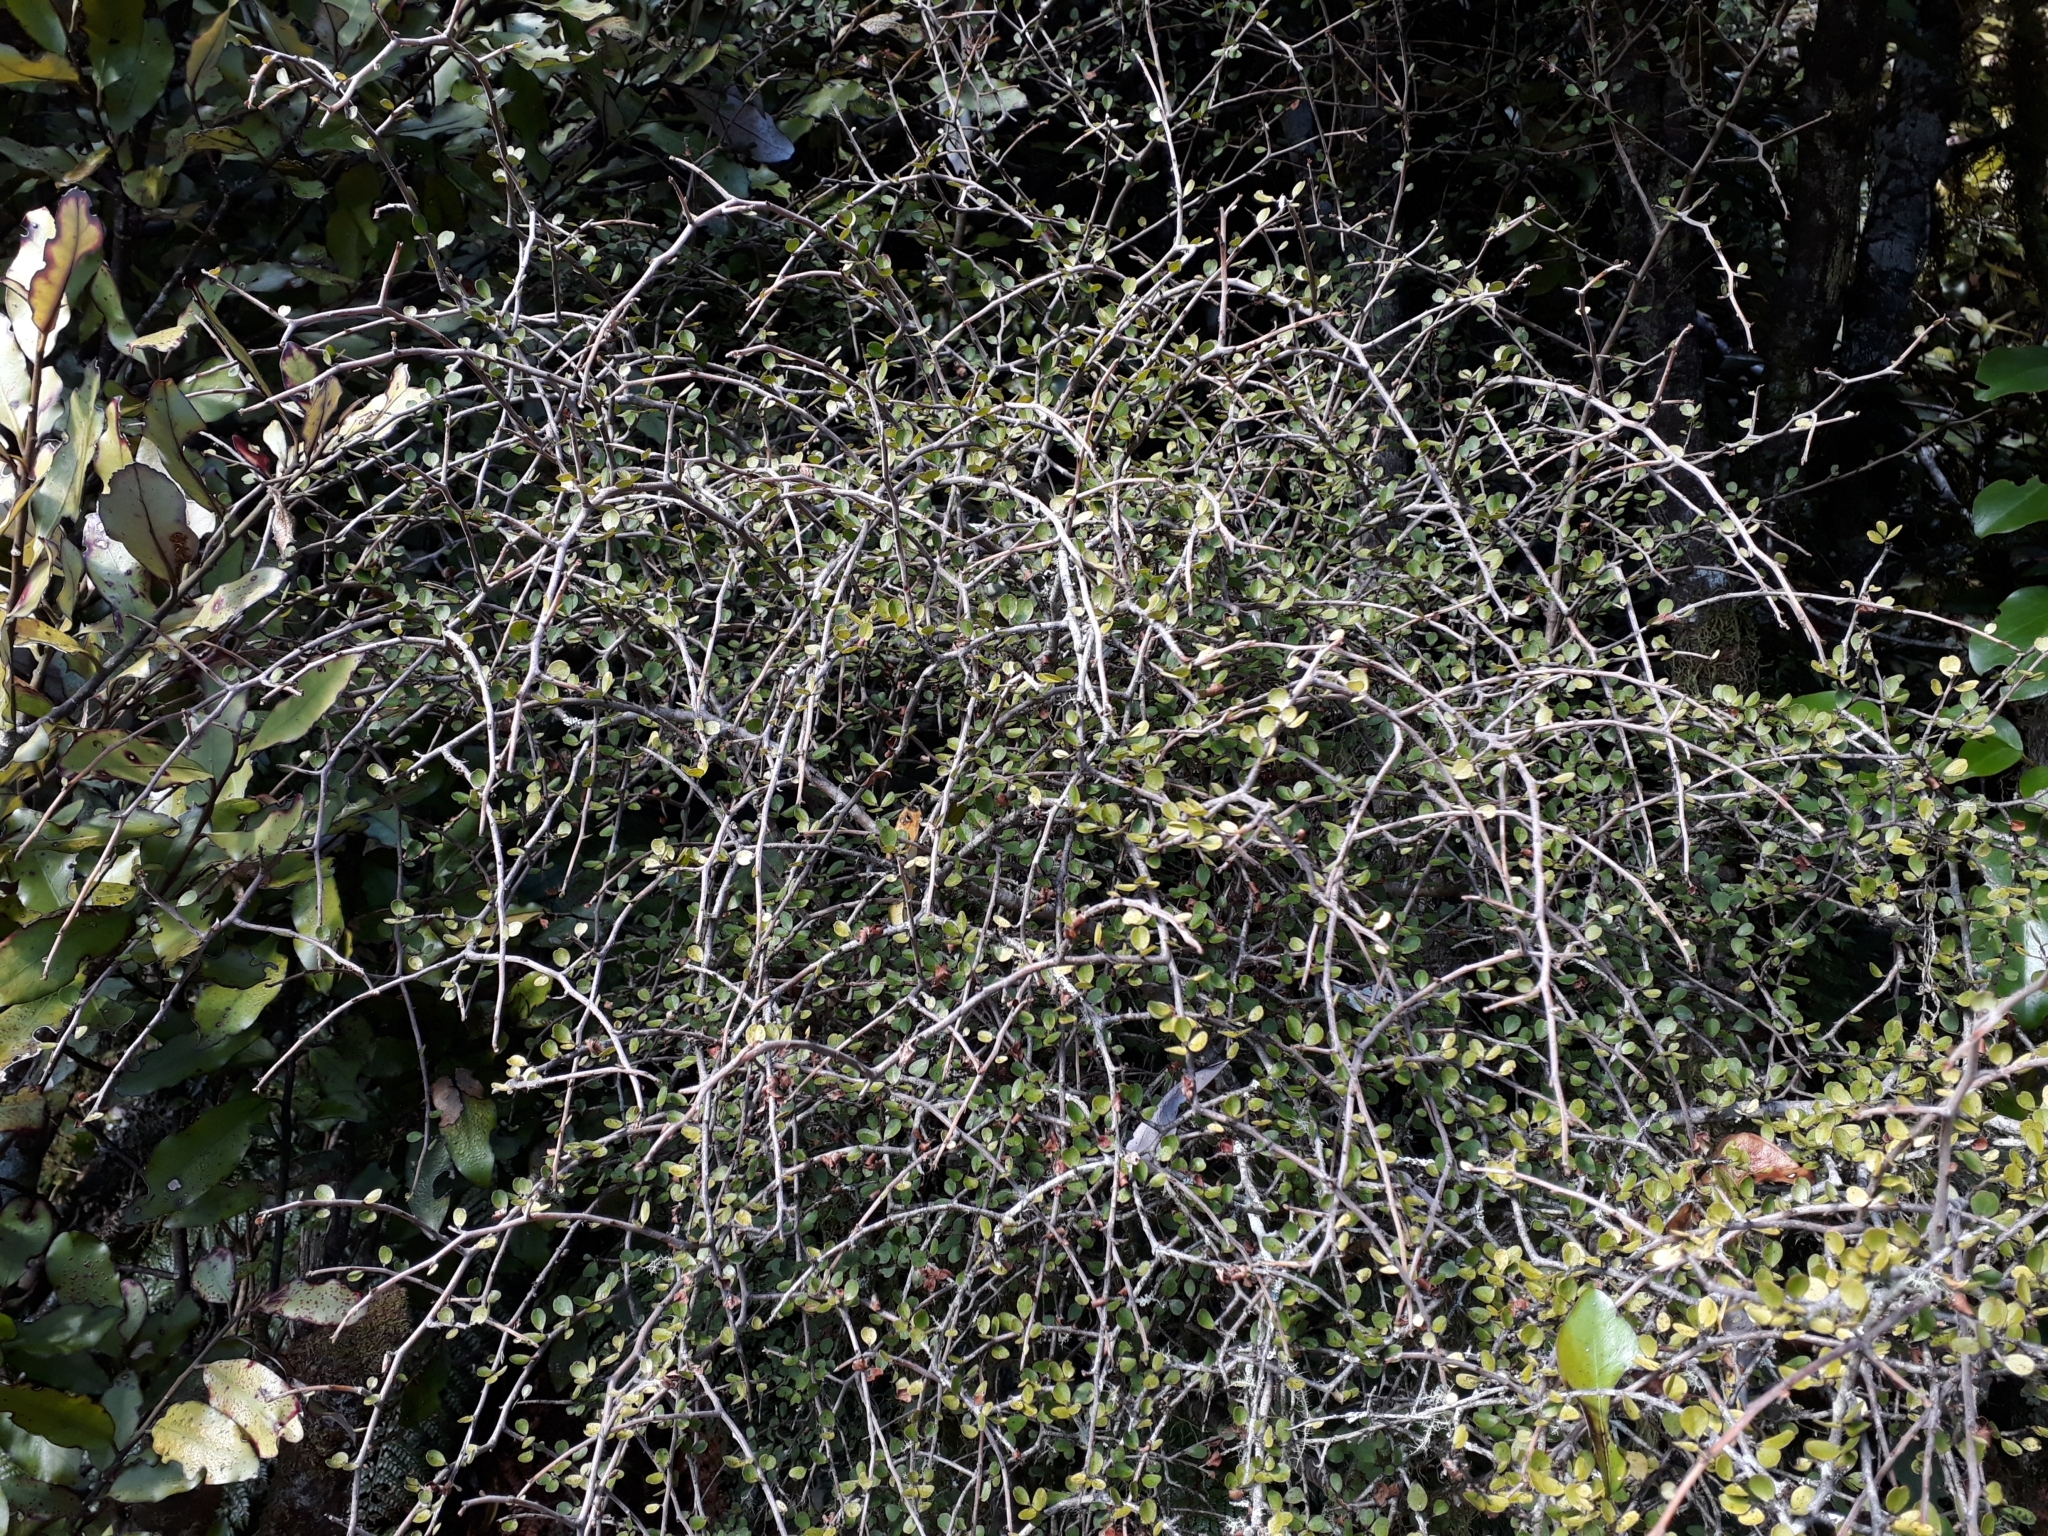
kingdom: Plantae
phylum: Tracheophyta
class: Magnoliopsida
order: Ericales
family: Primulaceae
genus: Myrsine
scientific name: Myrsine divaricata
